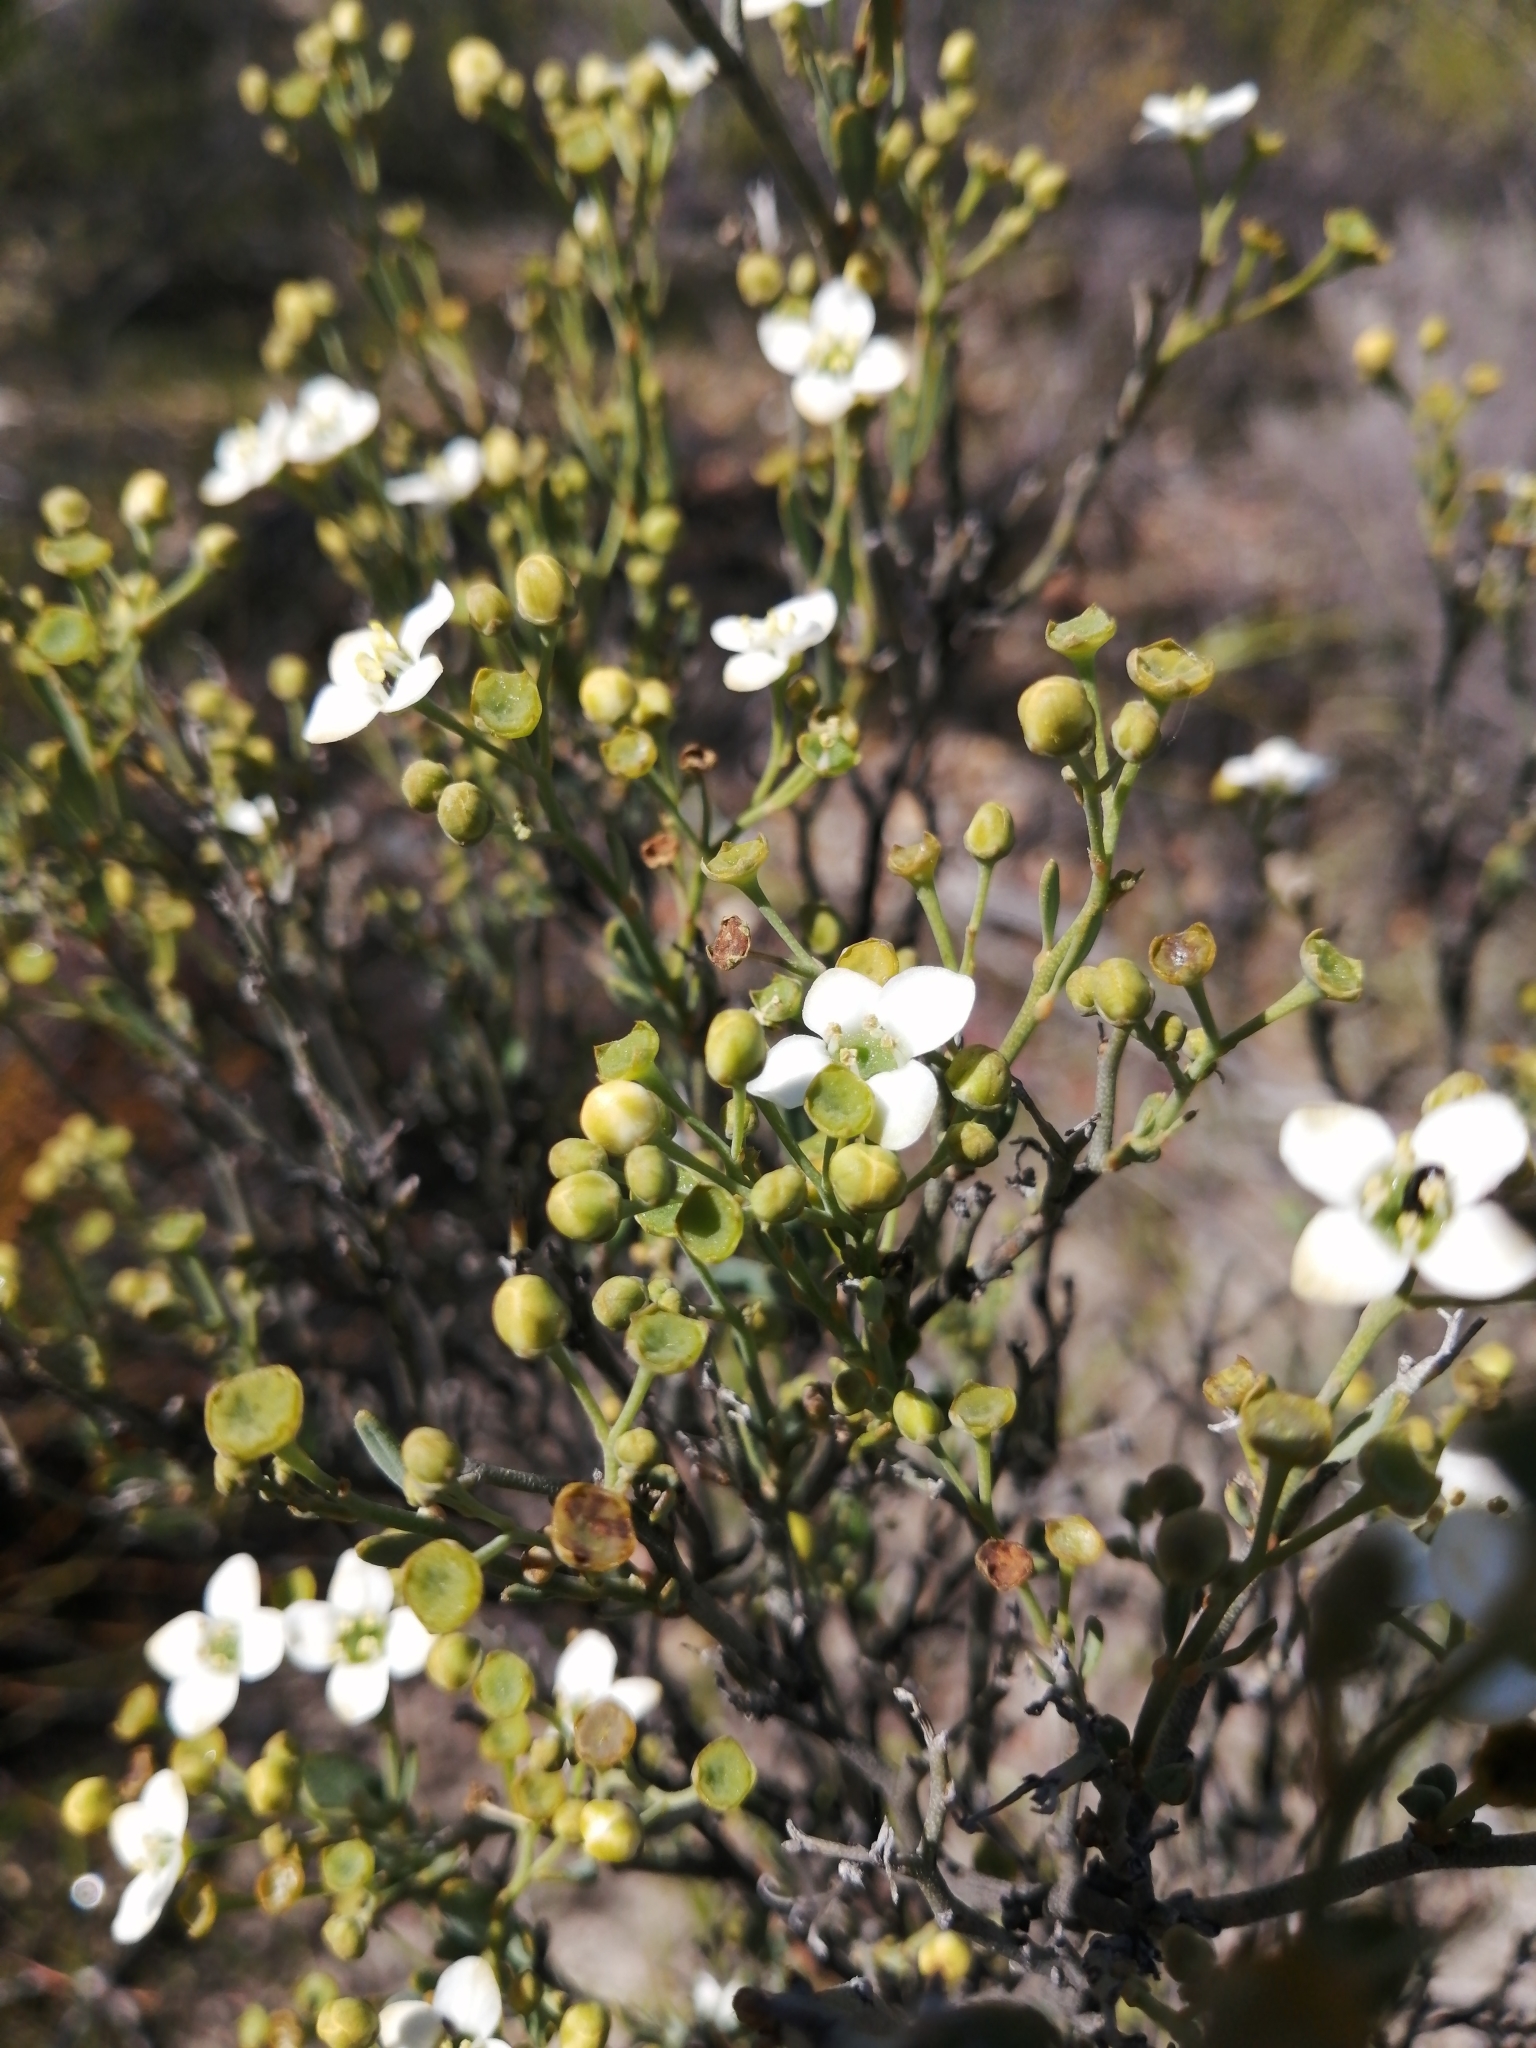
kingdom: Plantae
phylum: Tracheophyta
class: Magnoliopsida
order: Solanales
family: Montiniaceae
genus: Montinia
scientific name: Montinia caryophyllacea
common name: Wild clove-bush
